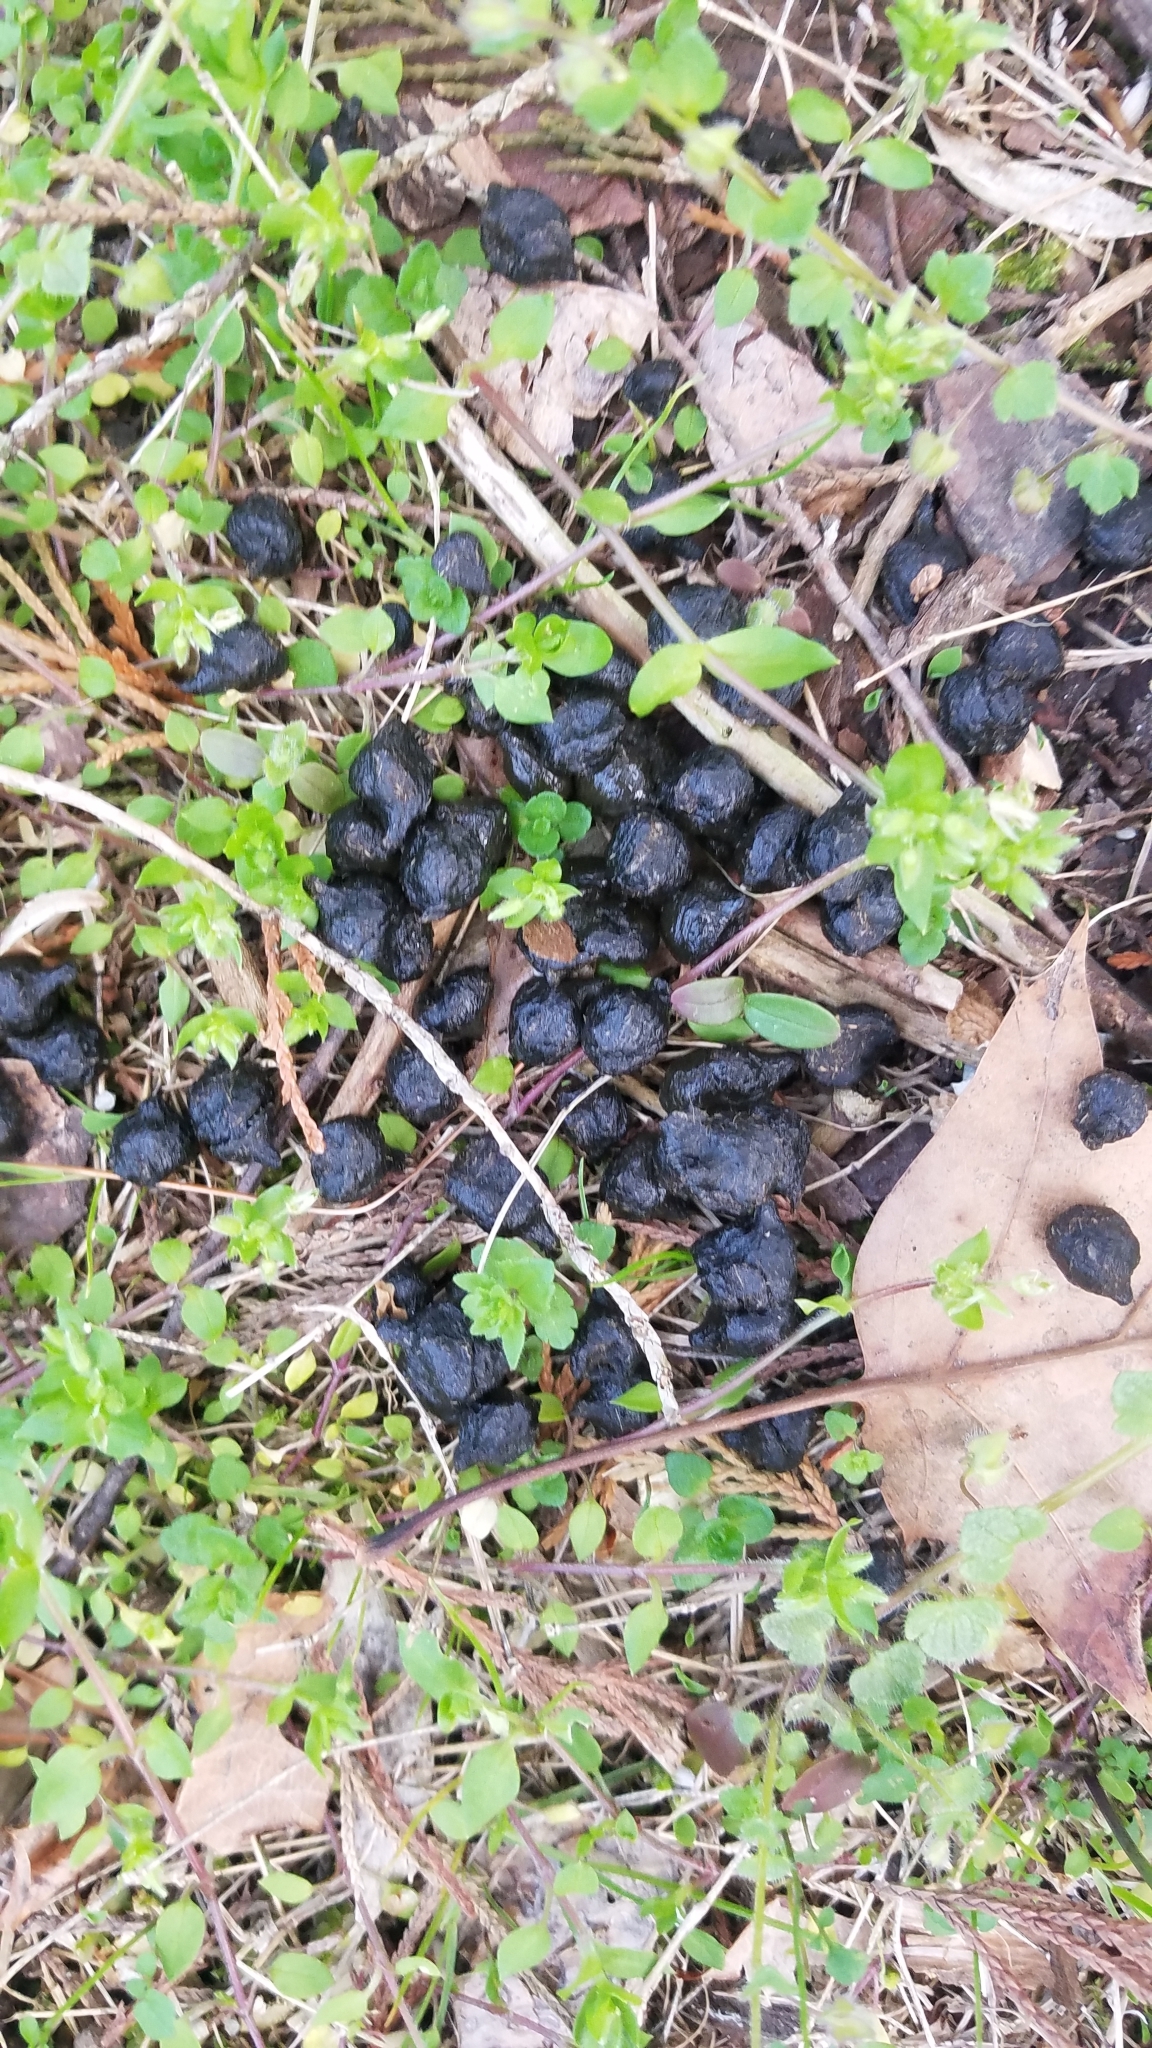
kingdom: Animalia
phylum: Chordata
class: Mammalia
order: Artiodactyla
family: Cervidae
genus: Odocoileus
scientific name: Odocoileus virginianus
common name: White-tailed deer
